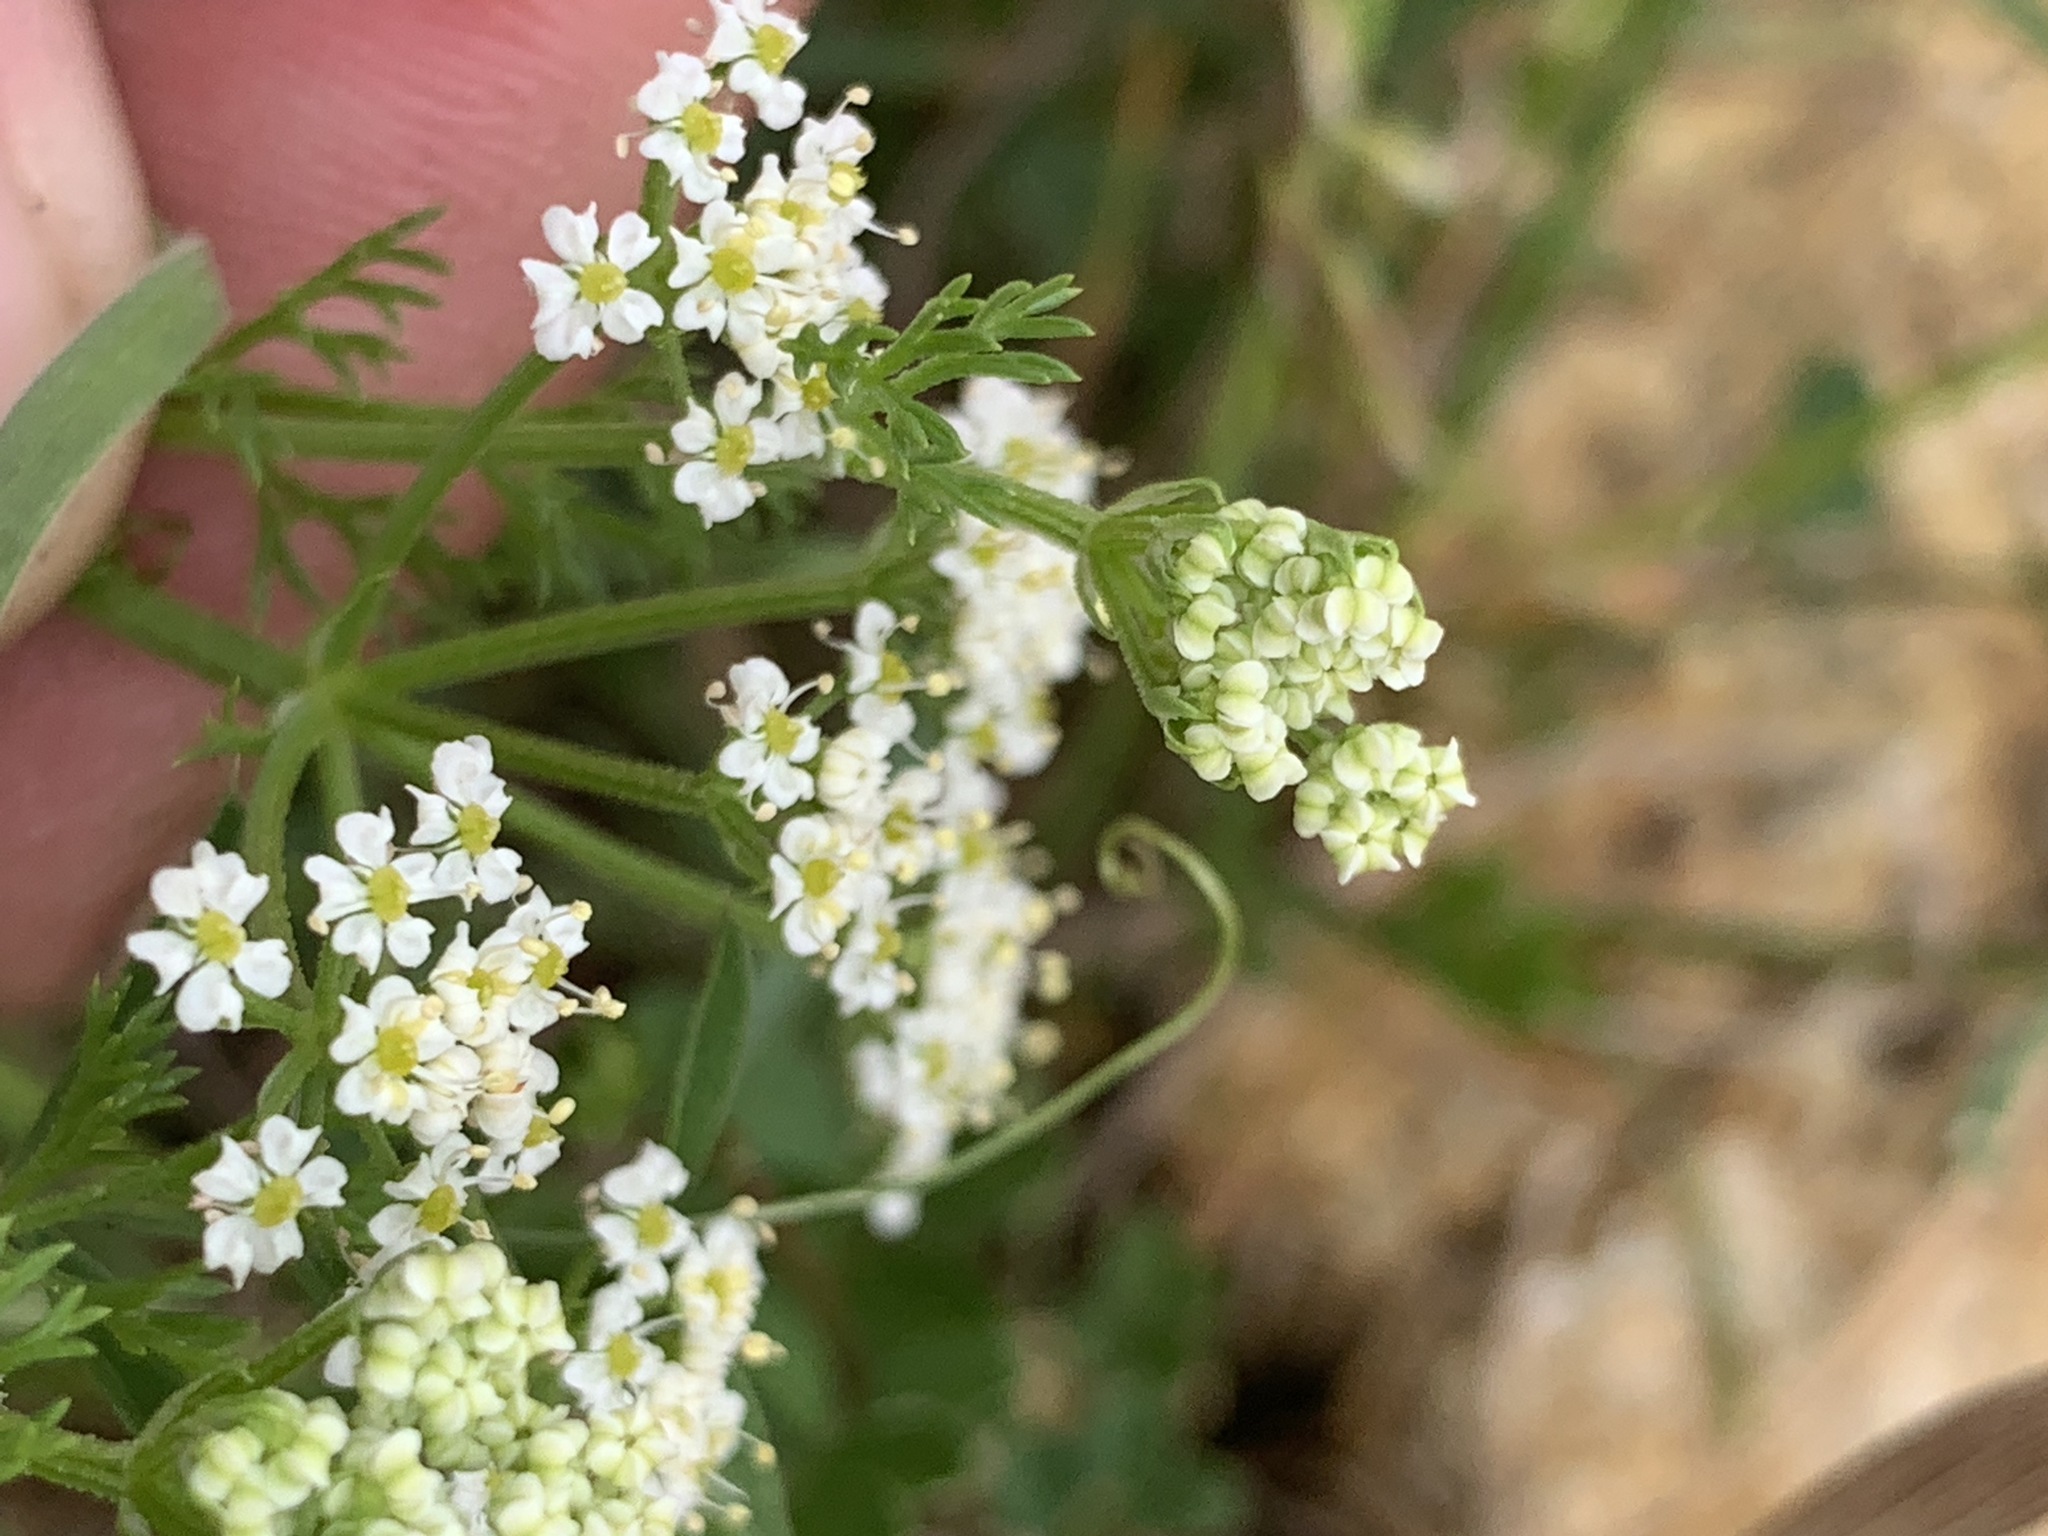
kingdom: Plantae
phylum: Tracheophyta
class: Magnoliopsida
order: Apiales
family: Apiaceae
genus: Dasispermum
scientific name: Dasispermum hispidum
